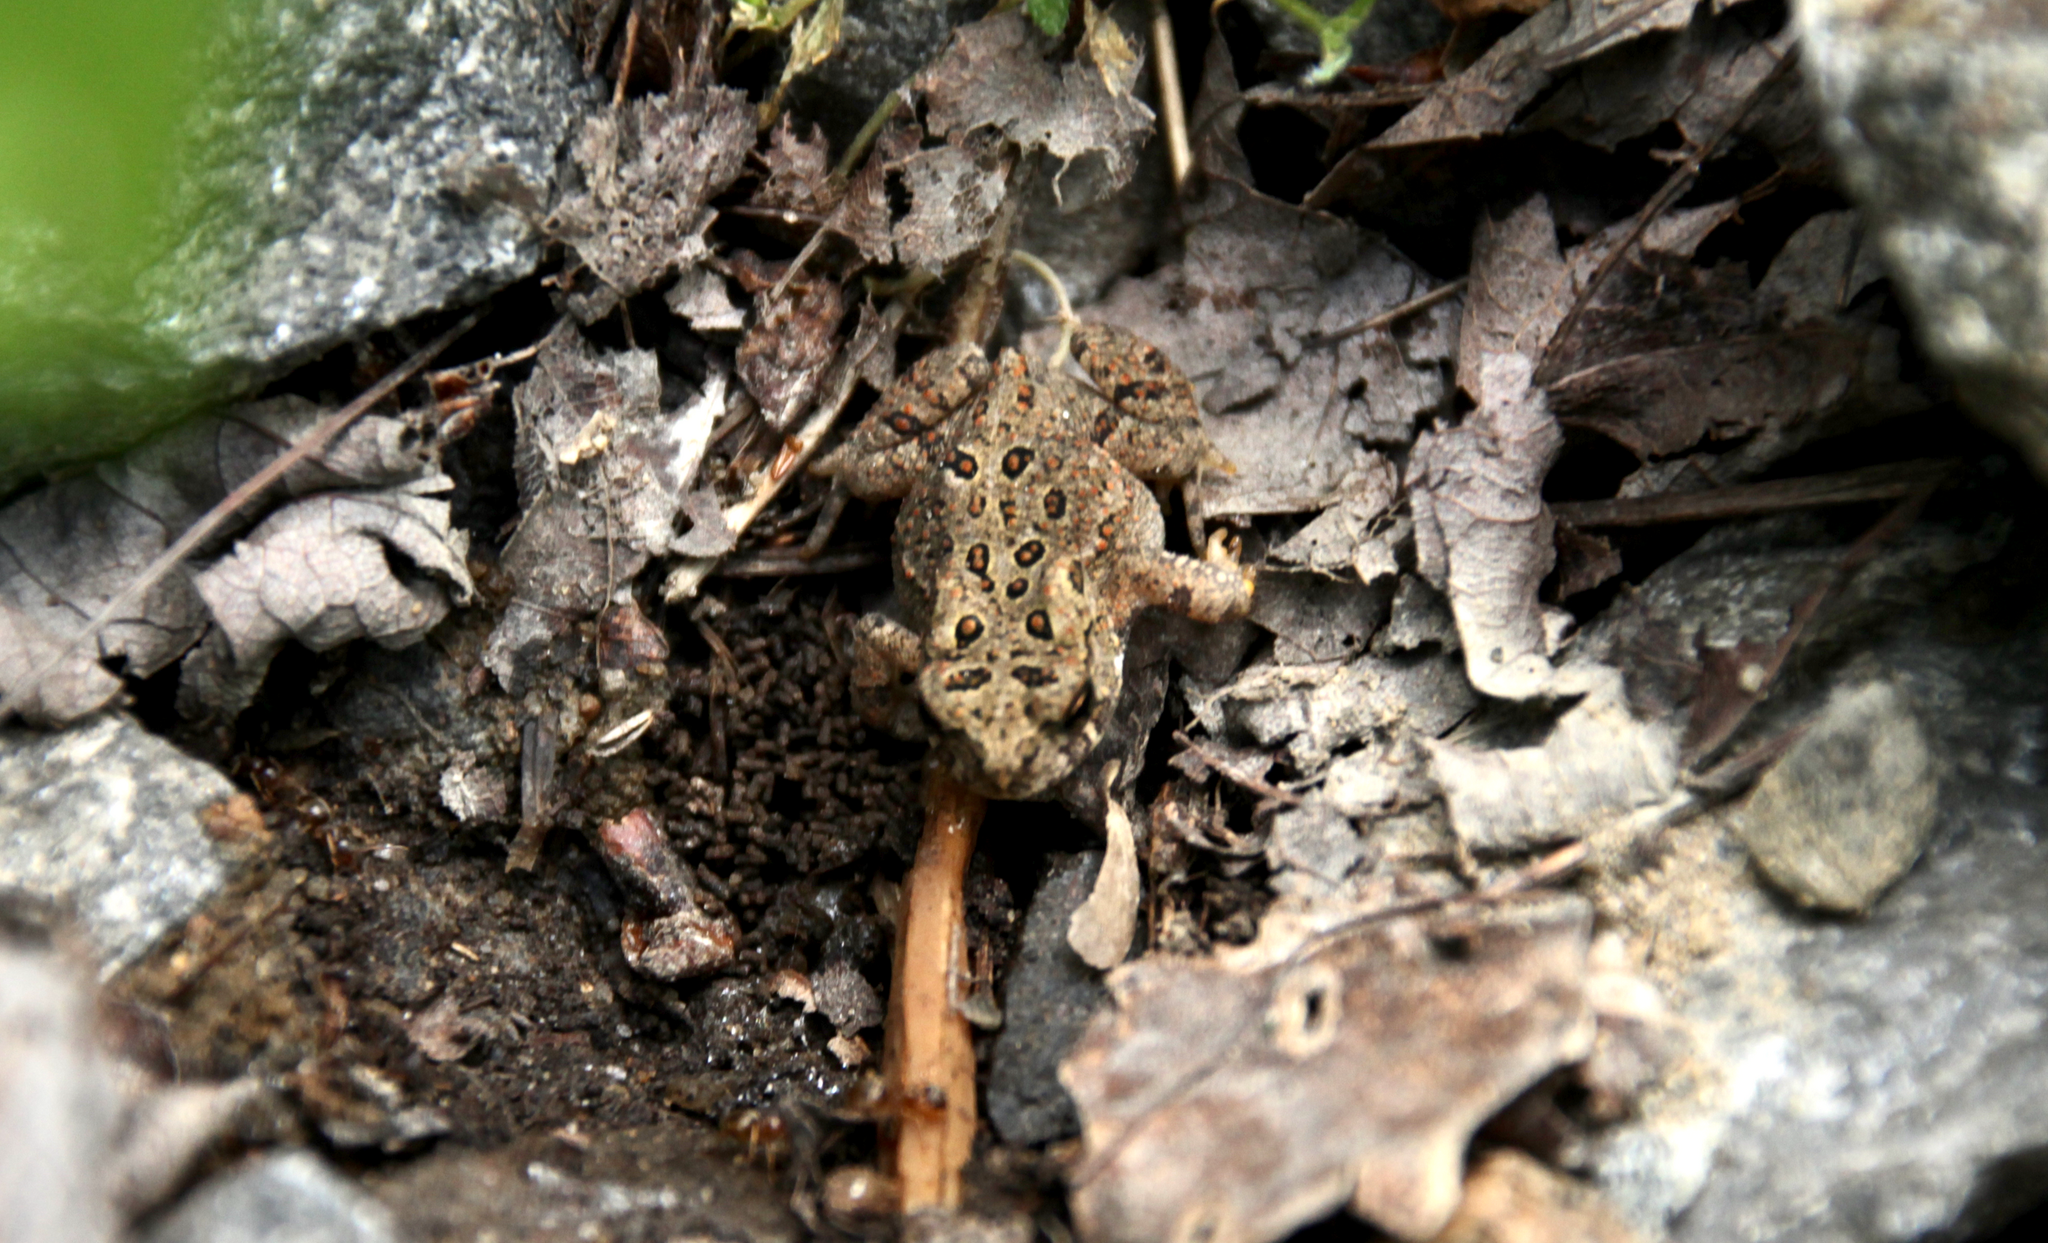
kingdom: Animalia
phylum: Chordata
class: Amphibia
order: Anura
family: Bufonidae
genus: Anaxyrus
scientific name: Anaxyrus americanus
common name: American toad
